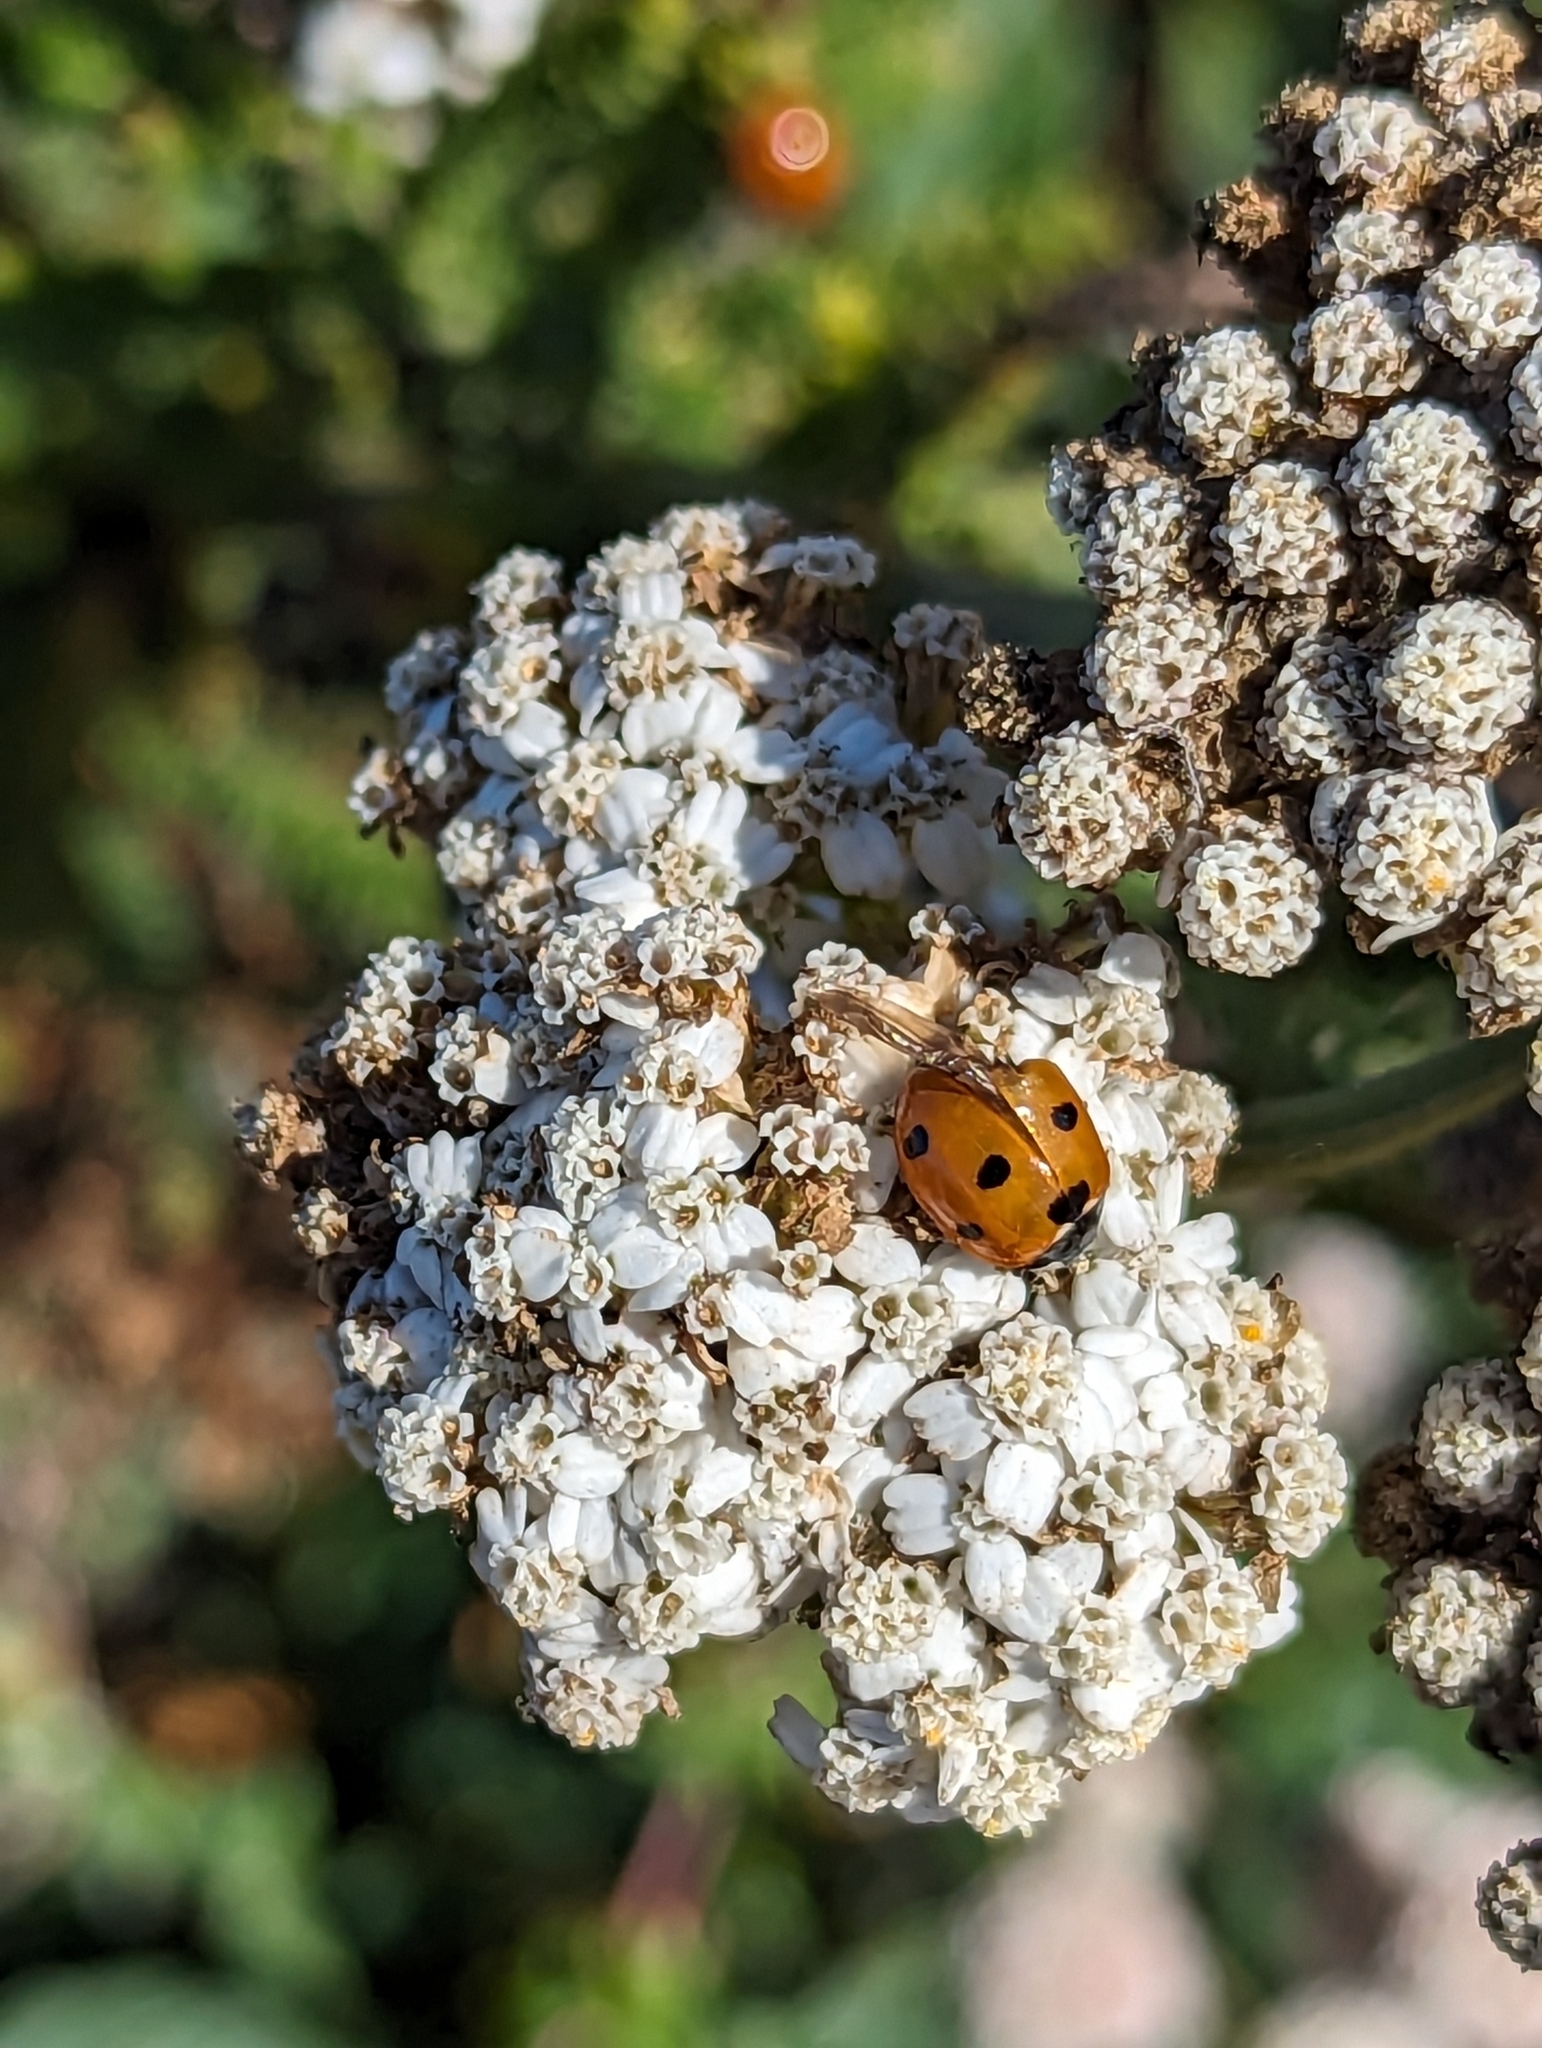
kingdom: Animalia
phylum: Arthropoda
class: Insecta
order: Coleoptera
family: Coccinellidae
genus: Coccinella
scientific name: Coccinella septempunctata
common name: Sevenspotted lady beetle
